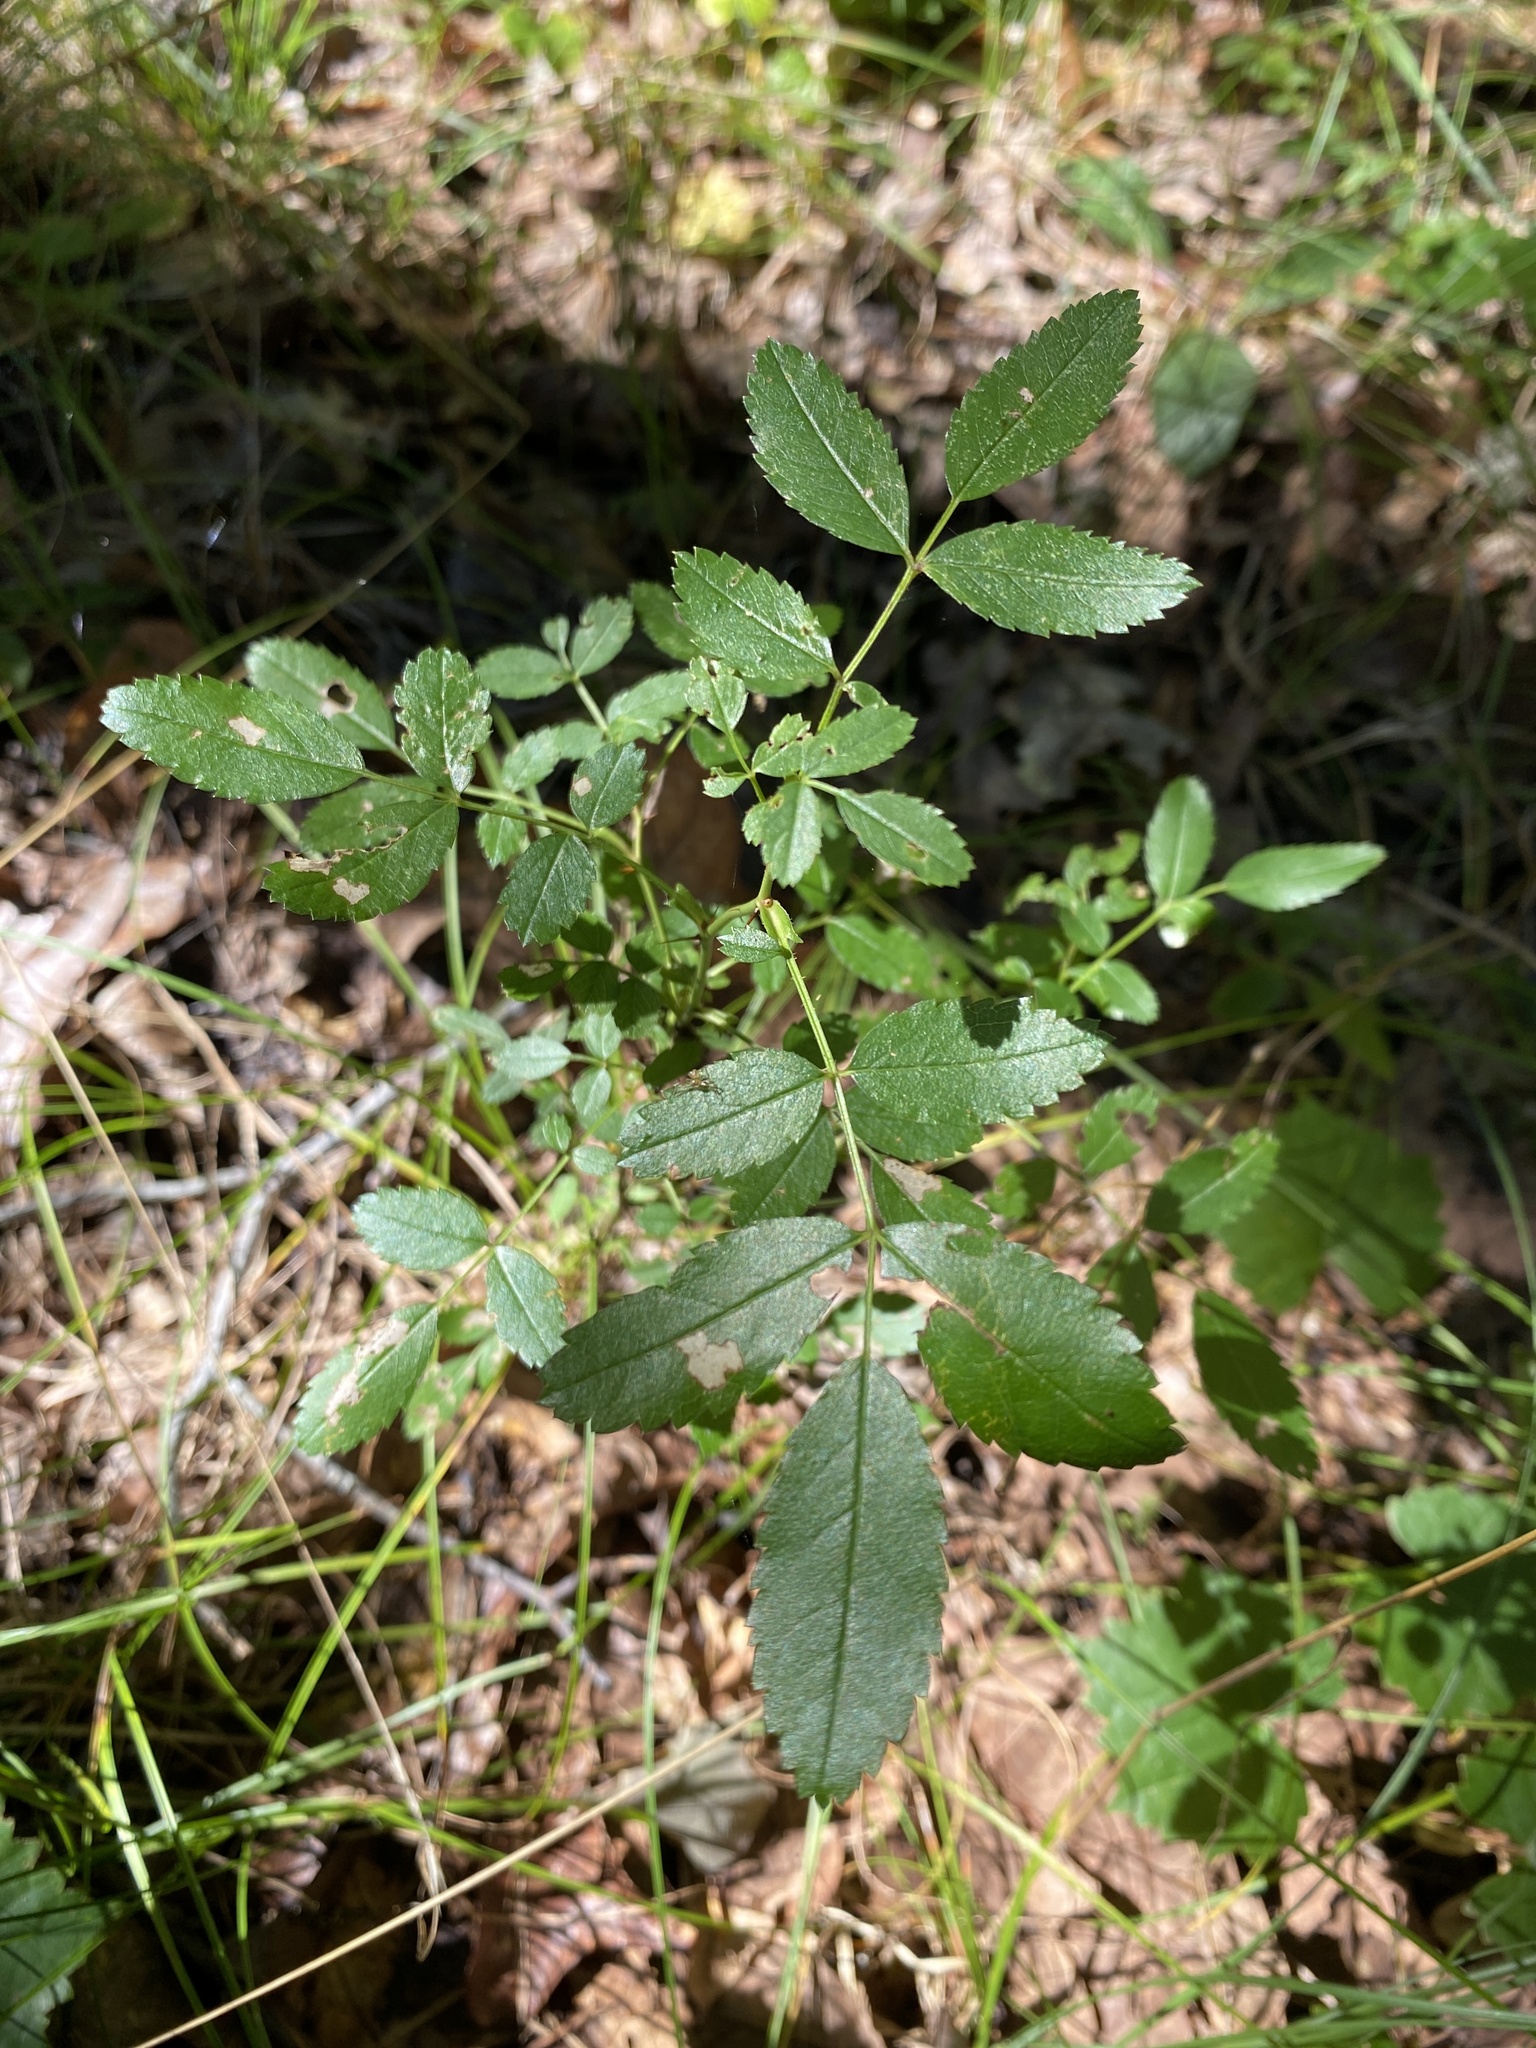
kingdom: Plantae
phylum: Tracheophyta
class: Magnoliopsida
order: Rosales
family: Rosaceae
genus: Rosa
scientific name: Rosa carolina
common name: Pasture rose
